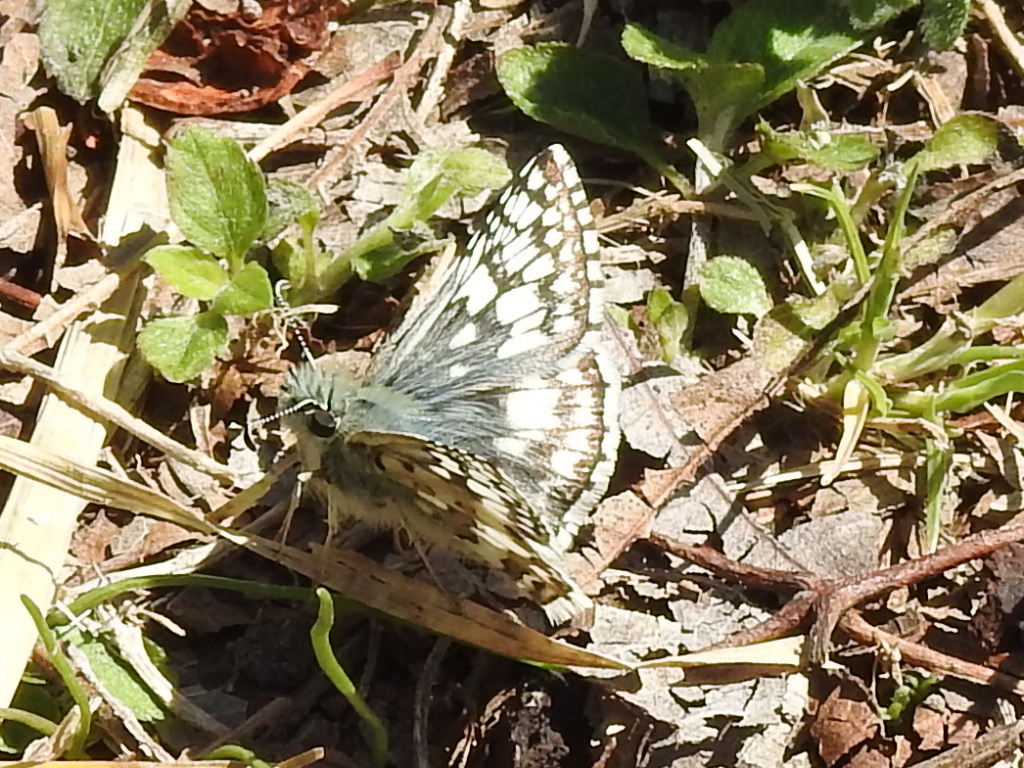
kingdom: Animalia
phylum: Arthropoda
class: Insecta
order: Lepidoptera
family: Hesperiidae
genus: Burnsius
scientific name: Burnsius
